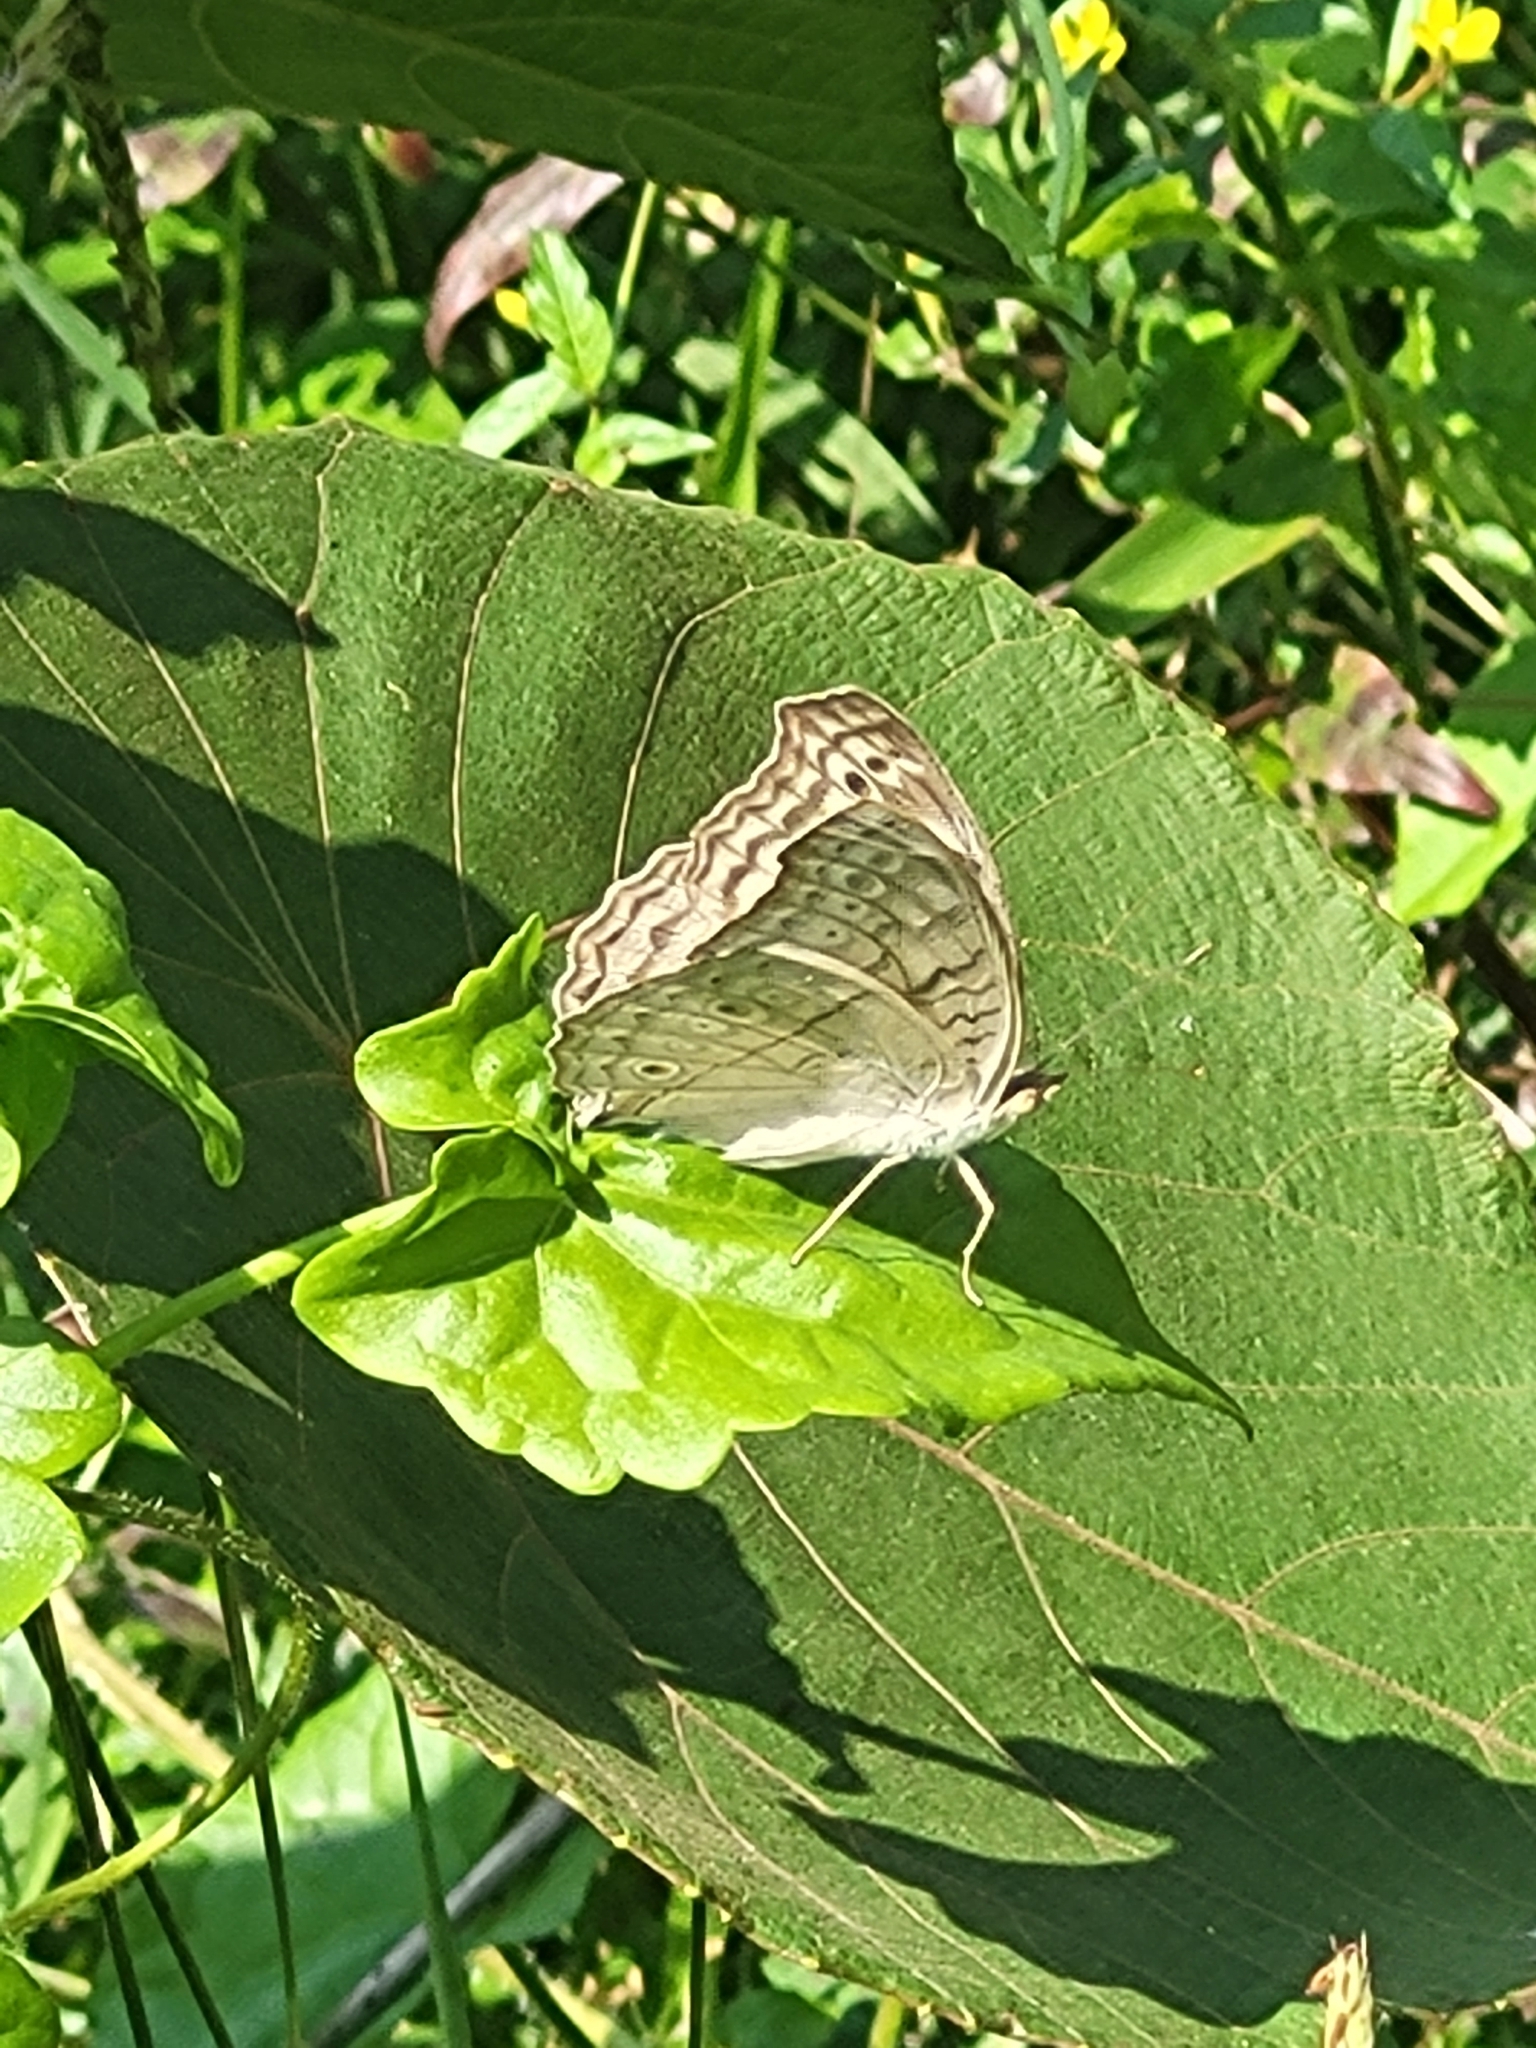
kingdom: Animalia
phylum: Arthropoda
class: Insecta
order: Lepidoptera
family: Nymphalidae
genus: Junonia
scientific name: Junonia atlites
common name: Grey pansy
